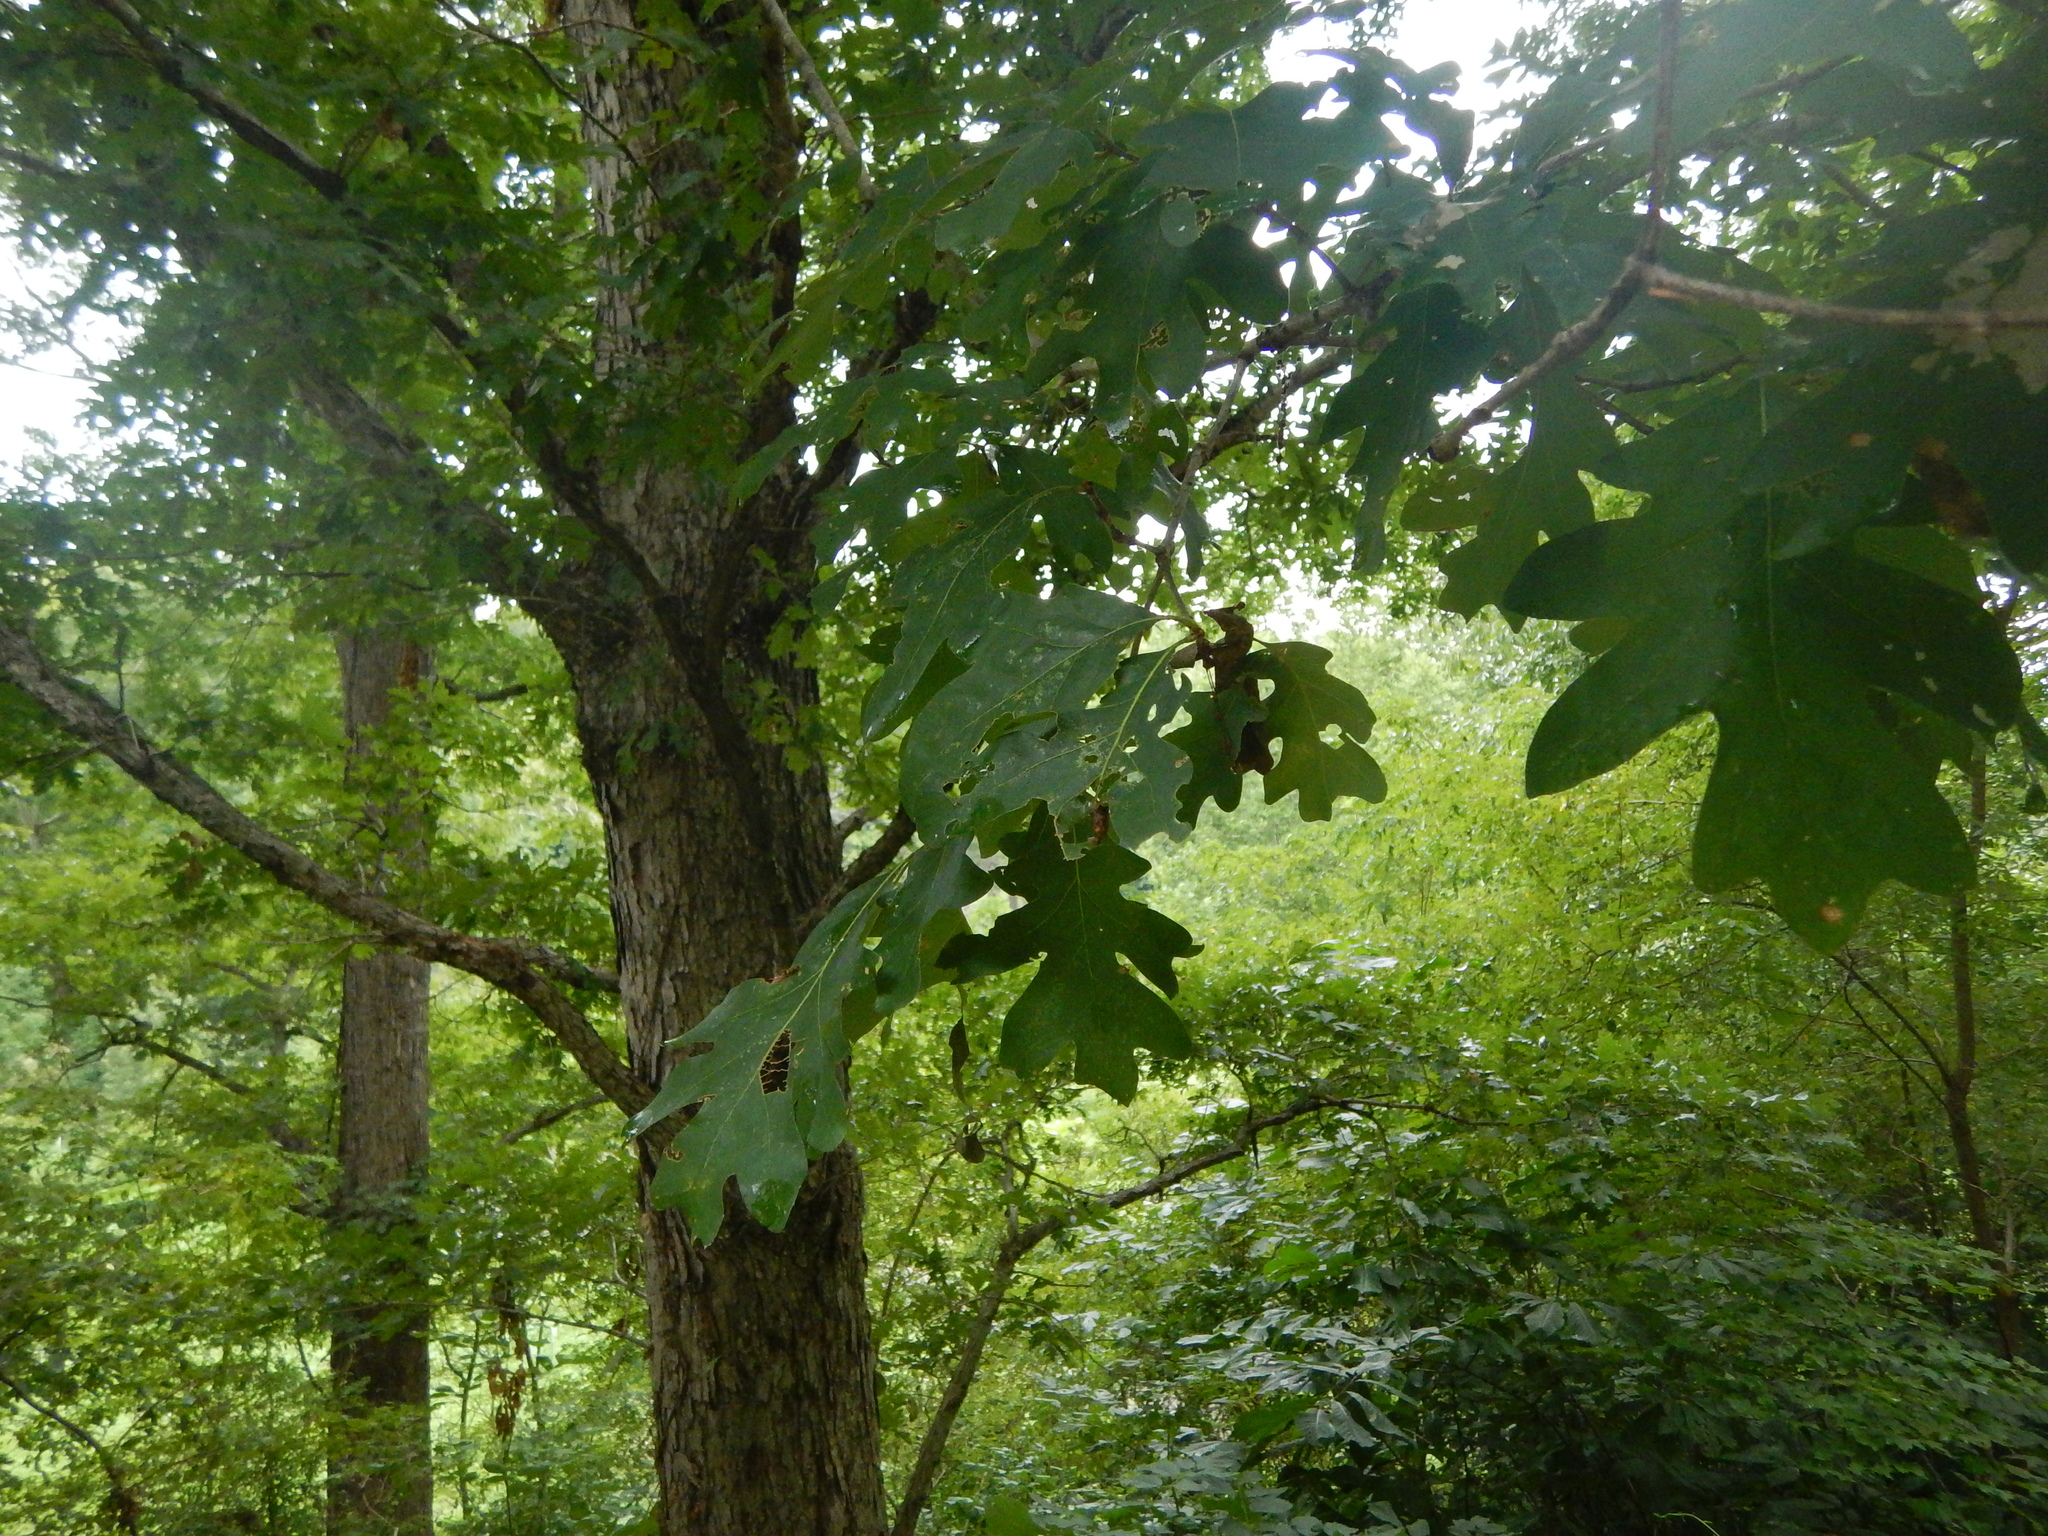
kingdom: Plantae
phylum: Tracheophyta
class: Magnoliopsida
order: Fagales
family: Fagaceae
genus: Quercus
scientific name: Quercus alba
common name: White oak
